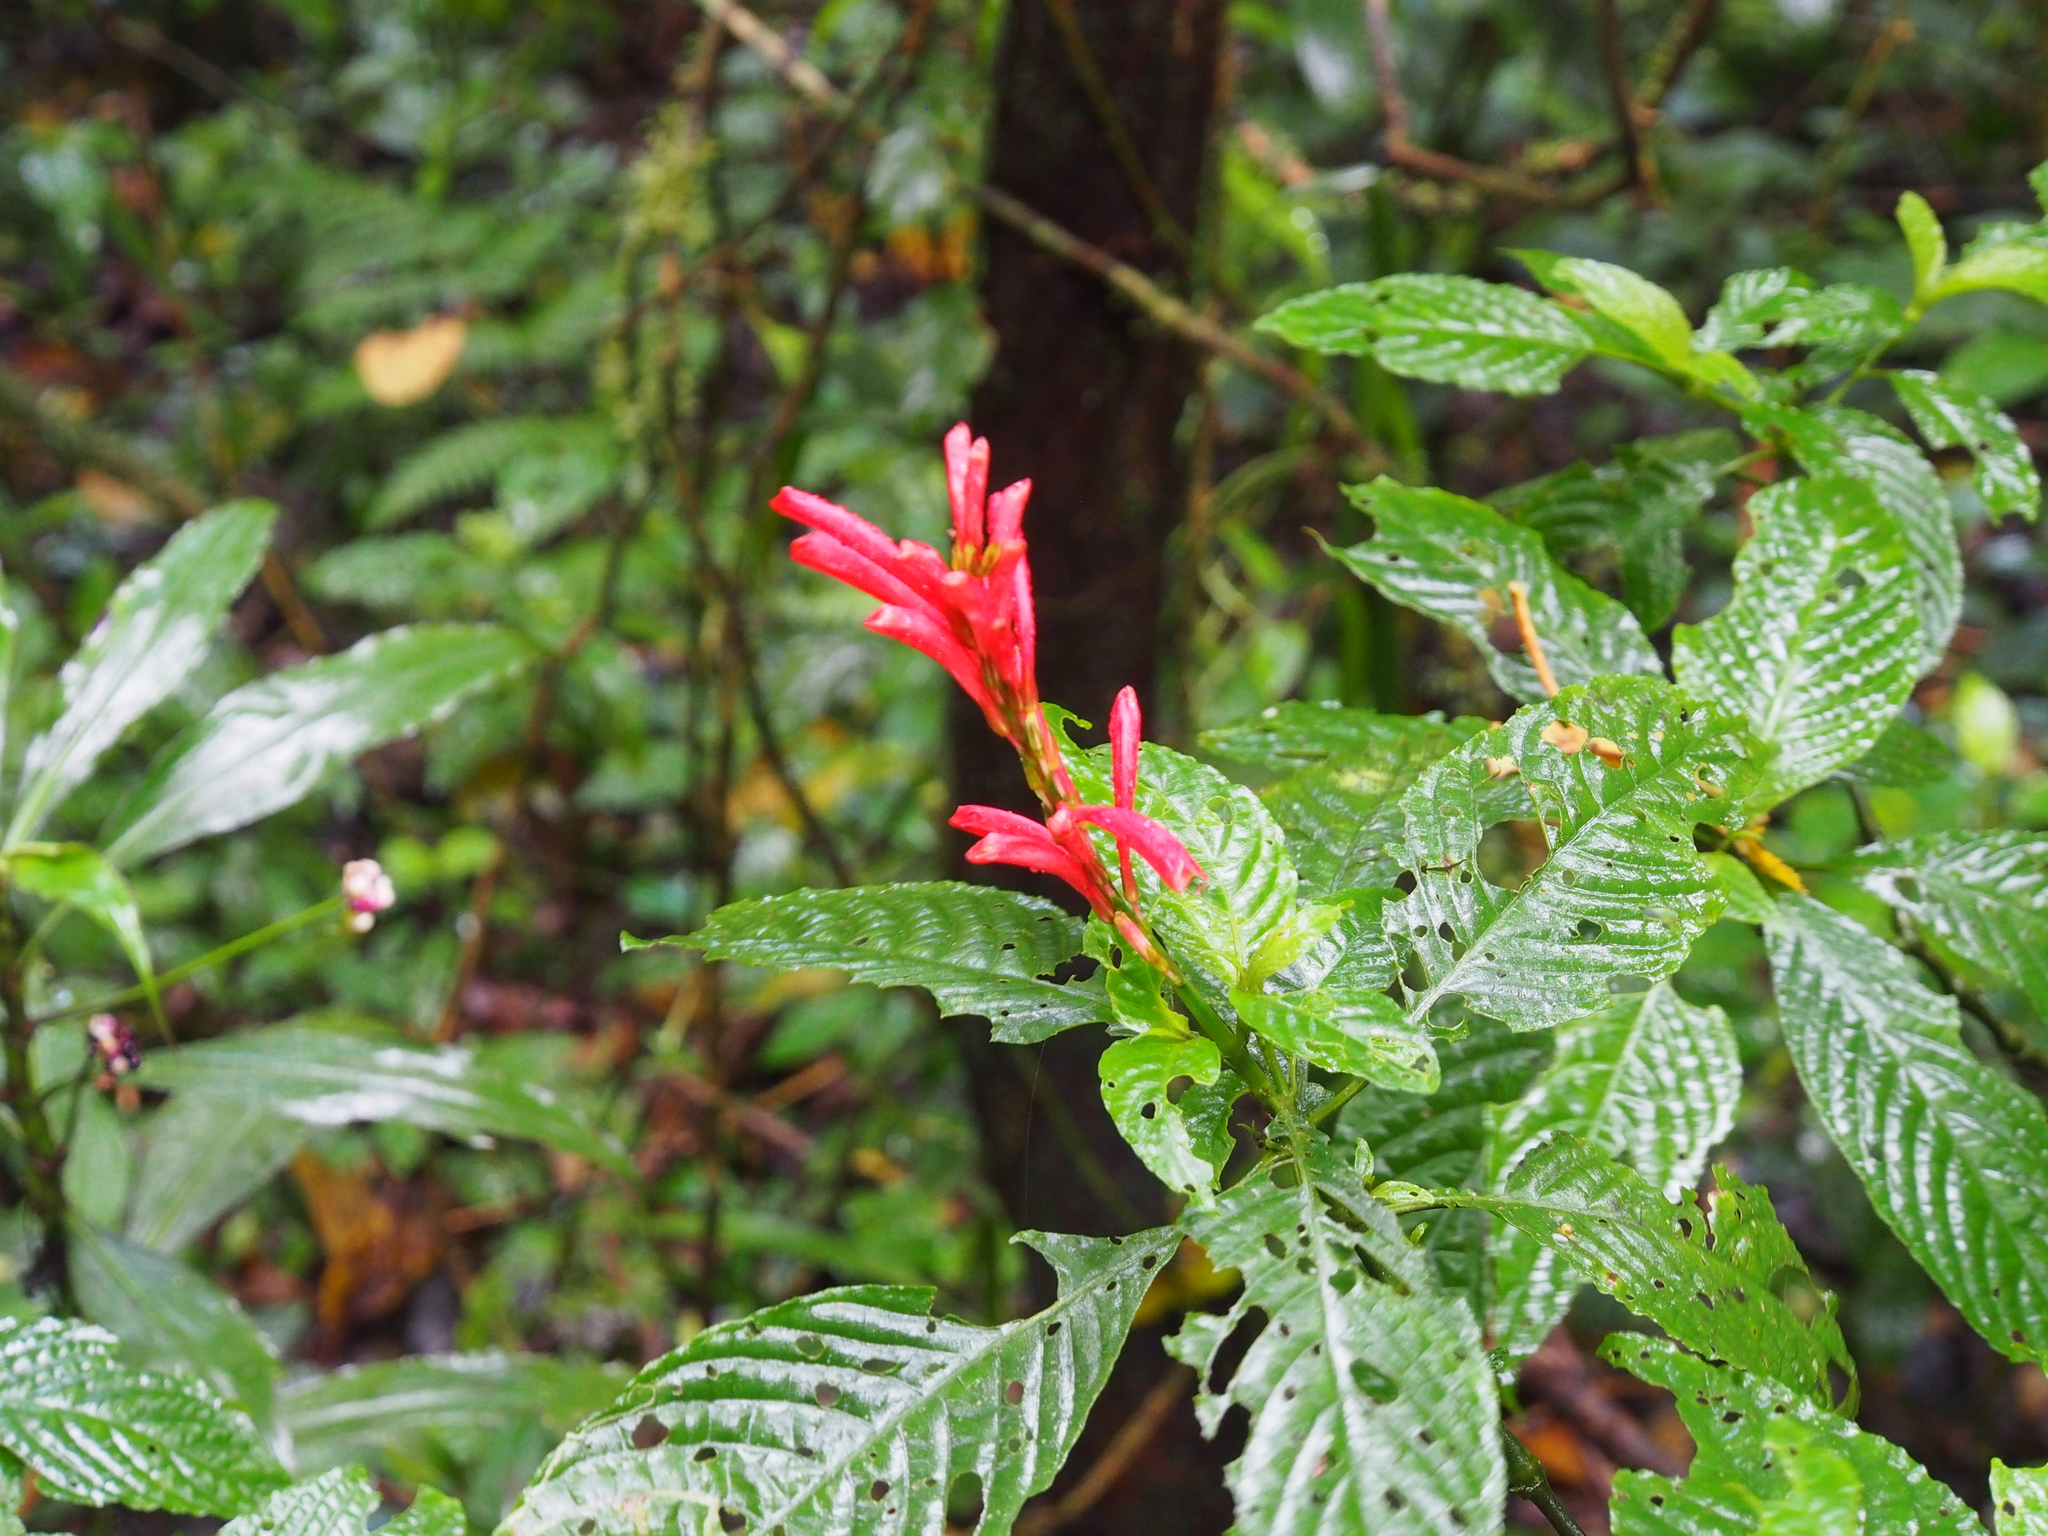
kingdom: Plantae
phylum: Tracheophyta
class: Magnoliopsida
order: Lamiales
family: Acanthaceae
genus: Stenostephanus
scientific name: Stenostephanus leiorhachis
